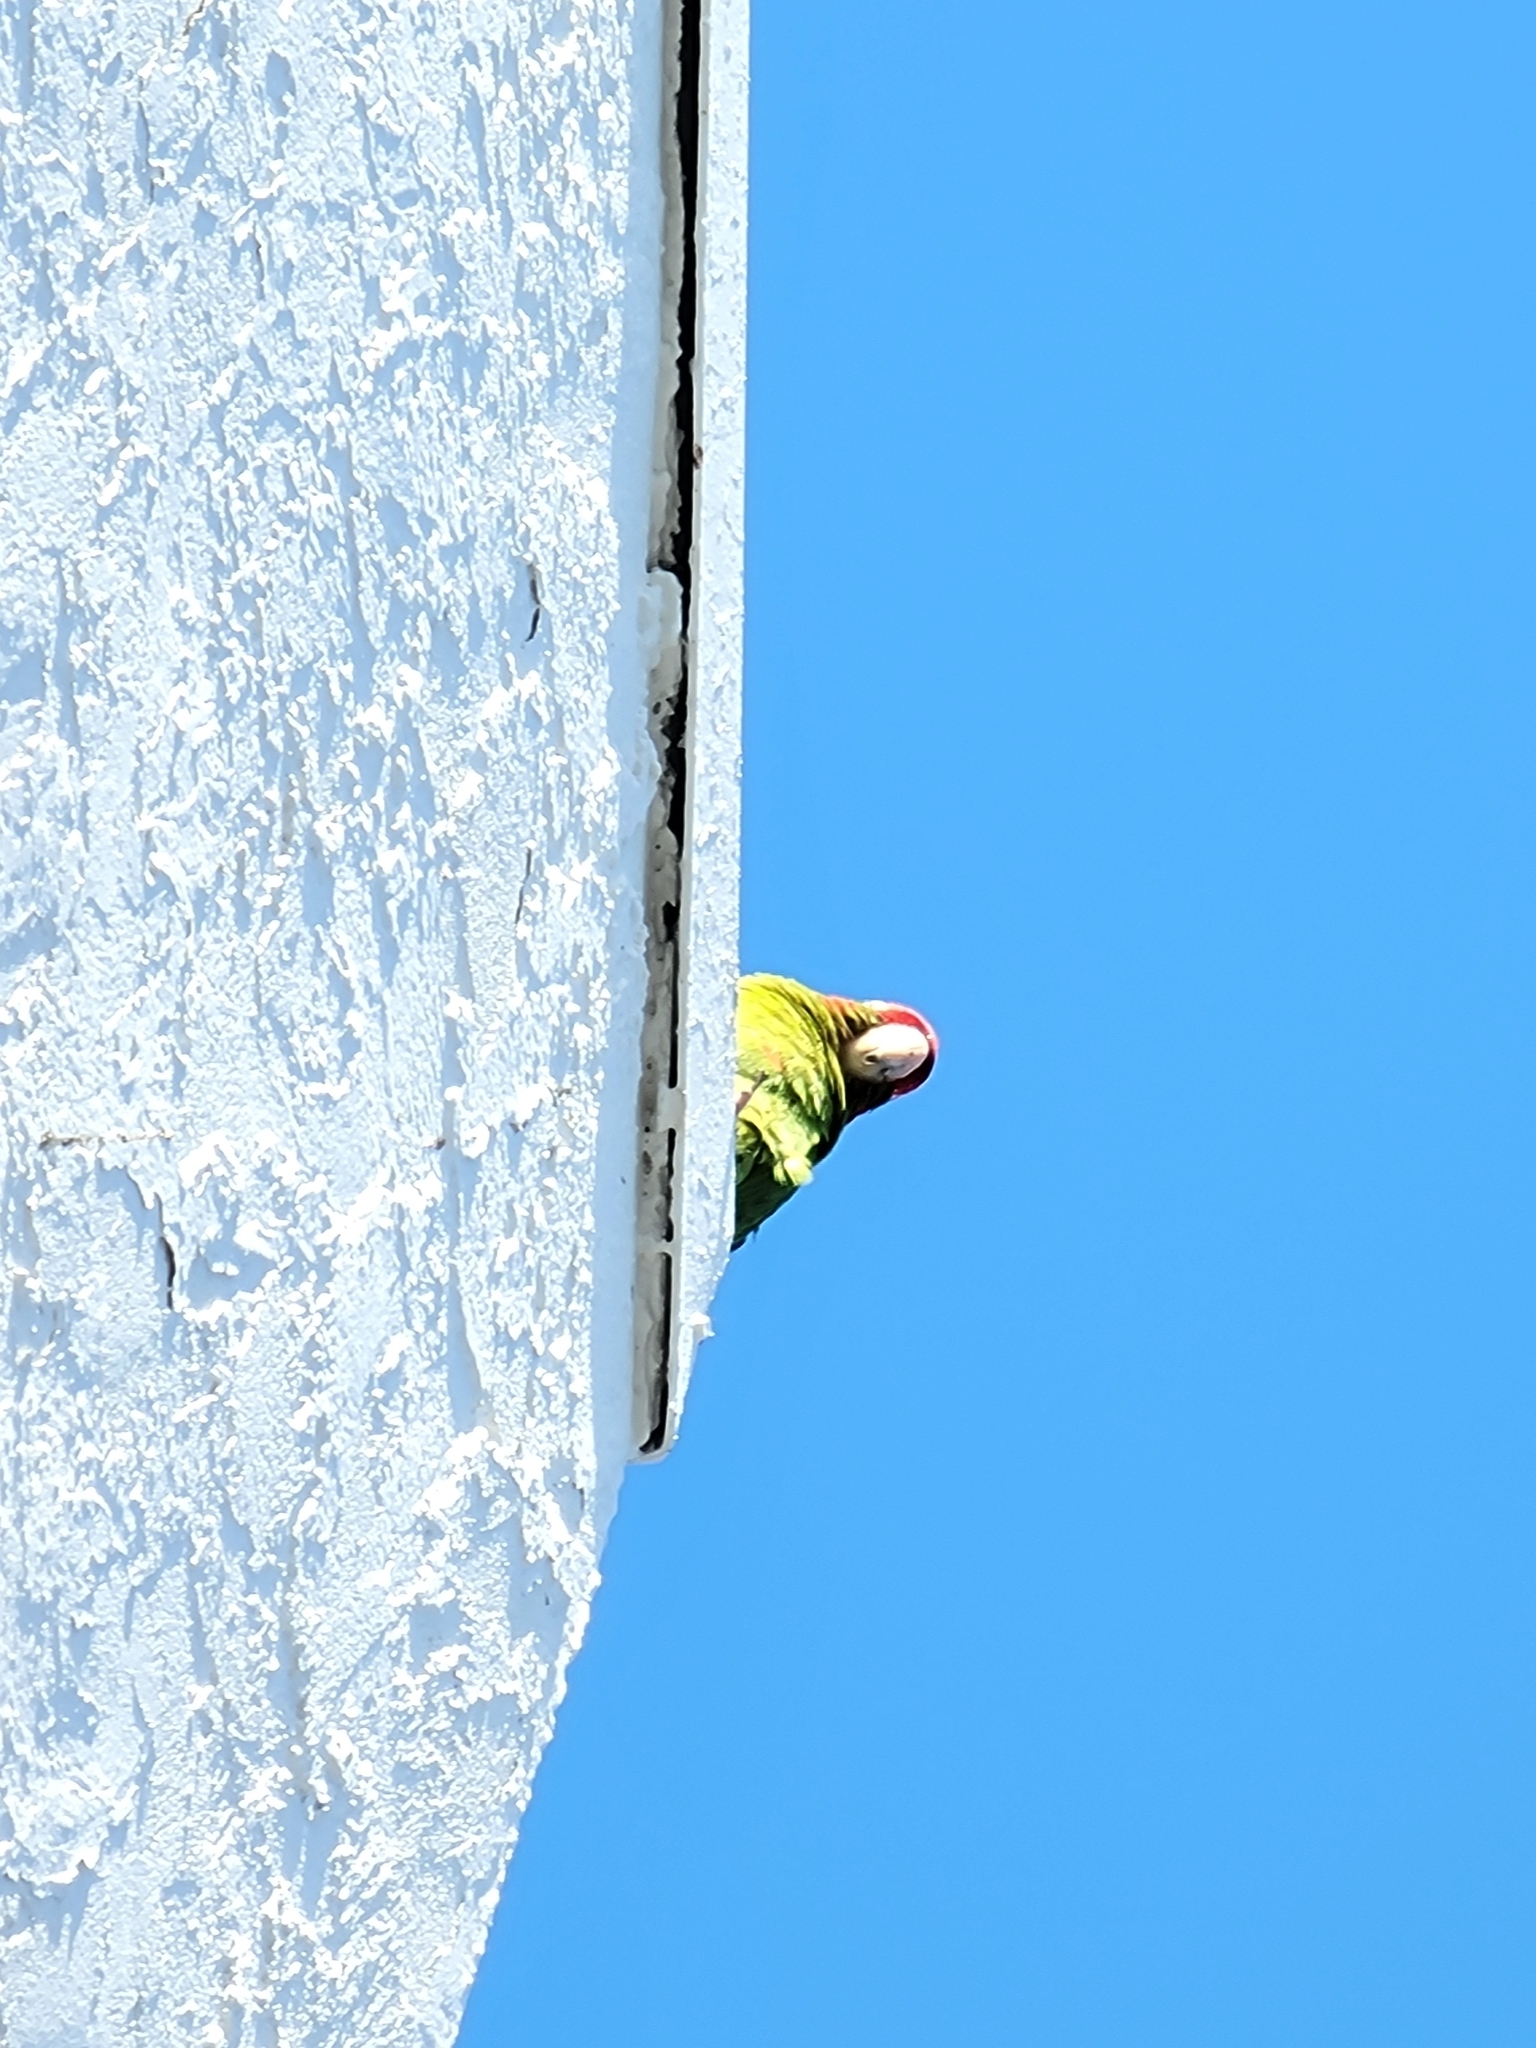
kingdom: Animalia
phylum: Chordata
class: Aves
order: Psittaciformes
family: Psittacidae
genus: Aratinga
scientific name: Aratinga mitrata
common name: Mitred parakeet
